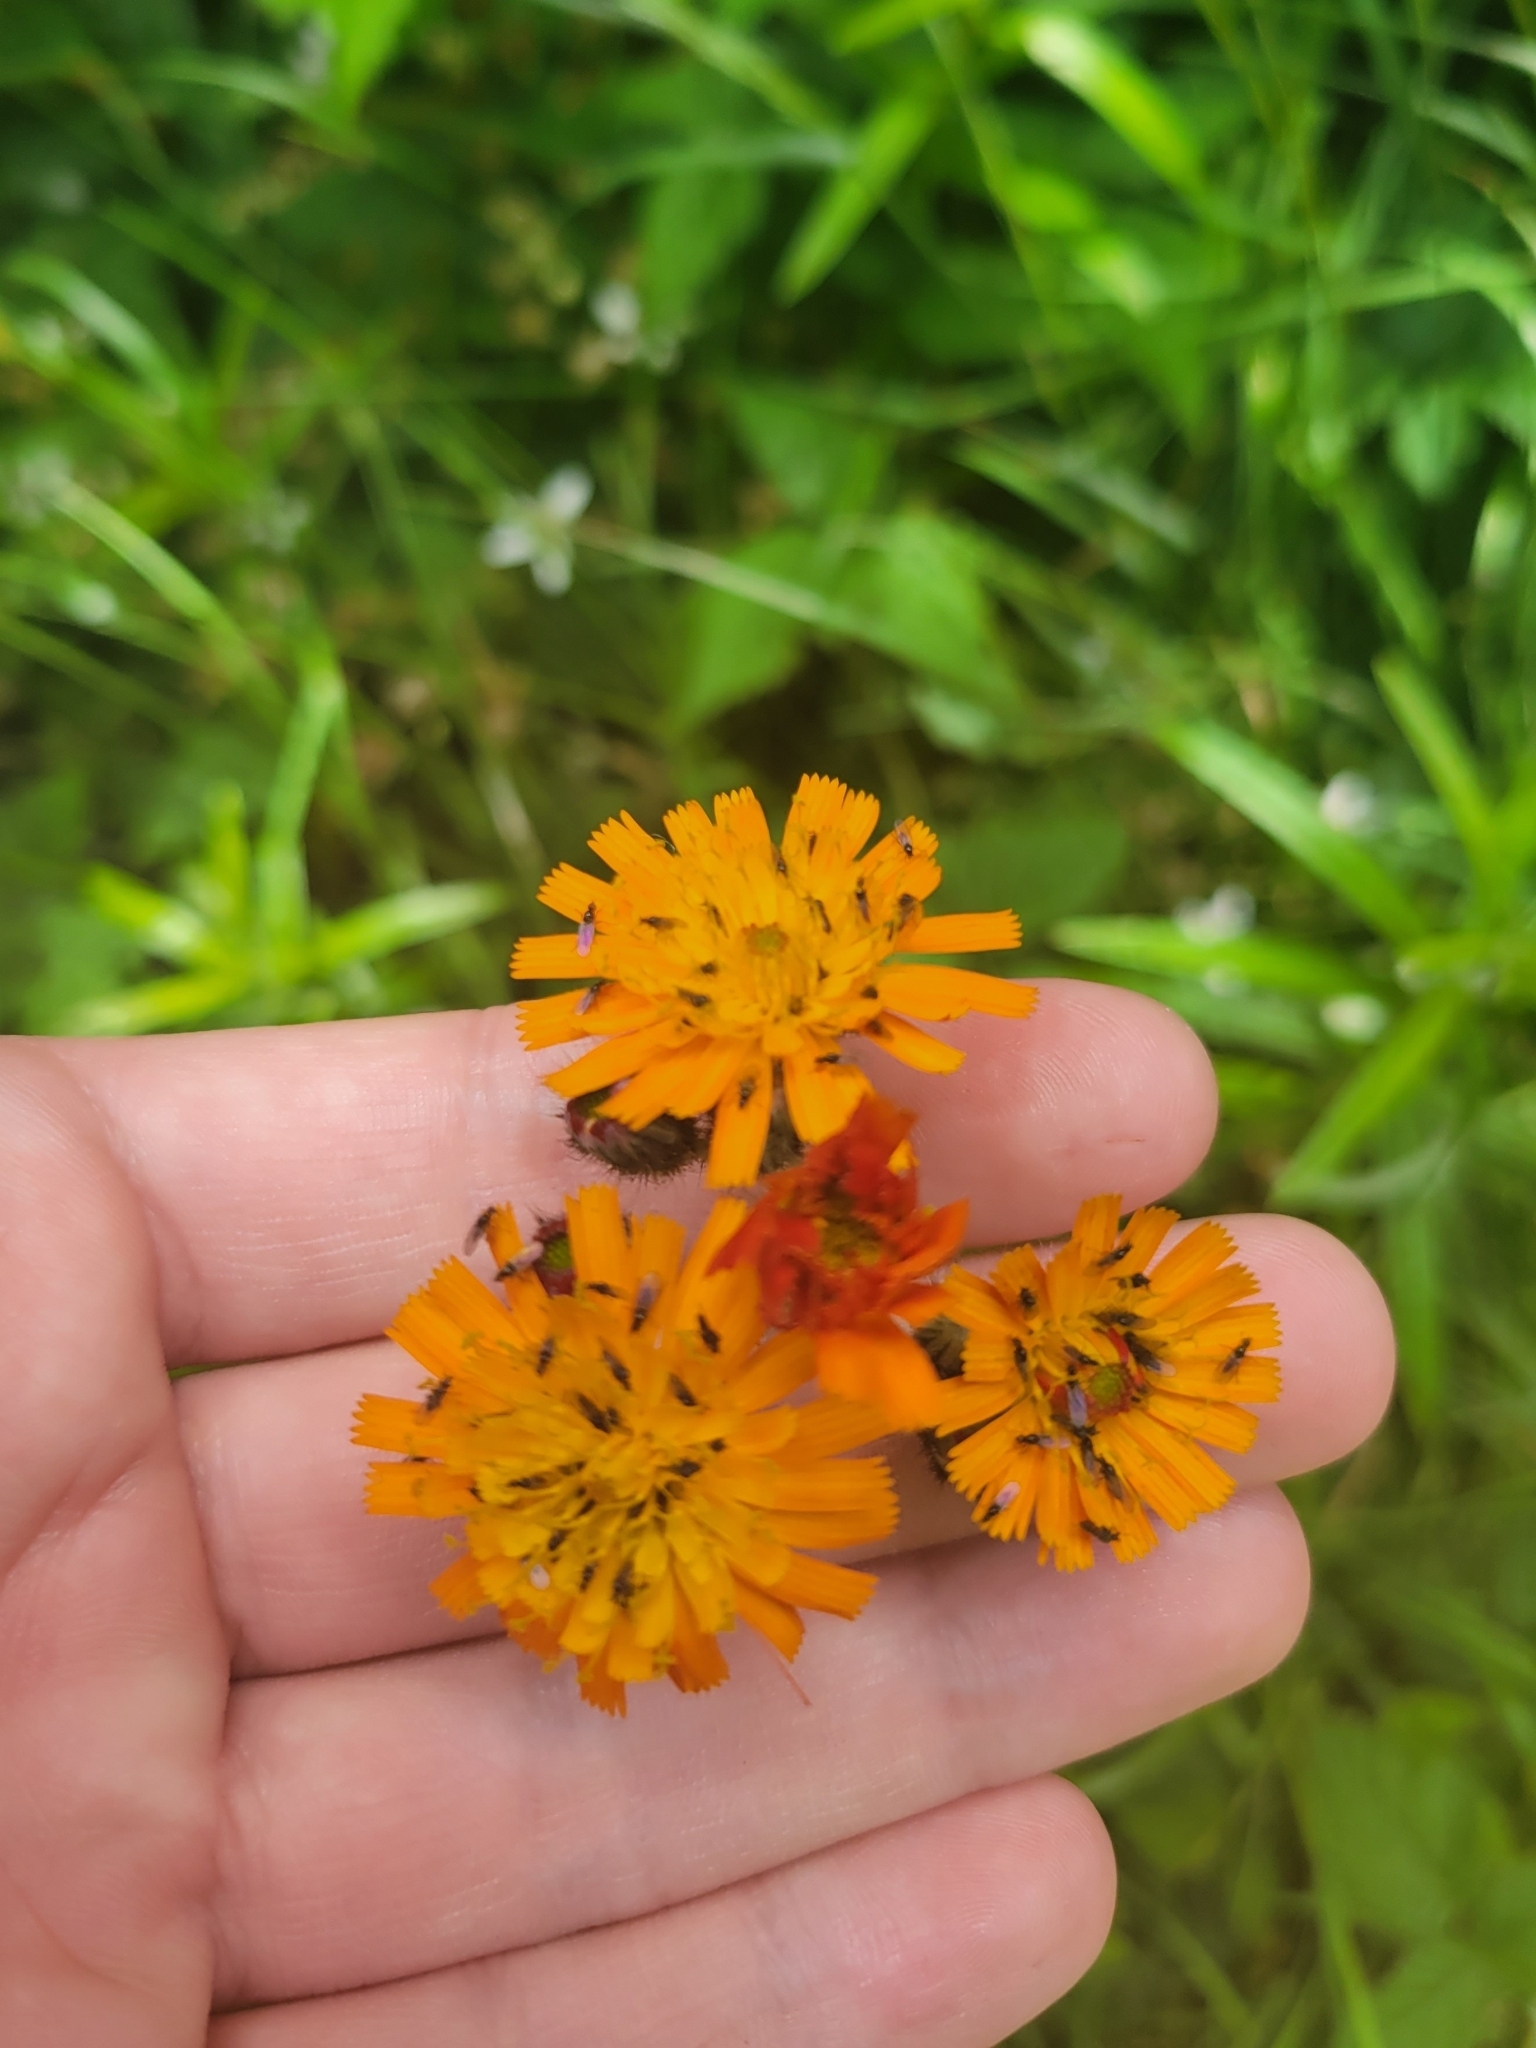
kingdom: Plantae
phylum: Tracheophyta
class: Magnoliopsida
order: Asterales
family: Asteraceae
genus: Pilosella
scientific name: Pilosella aurantiaca
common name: Fox-and-cubs
